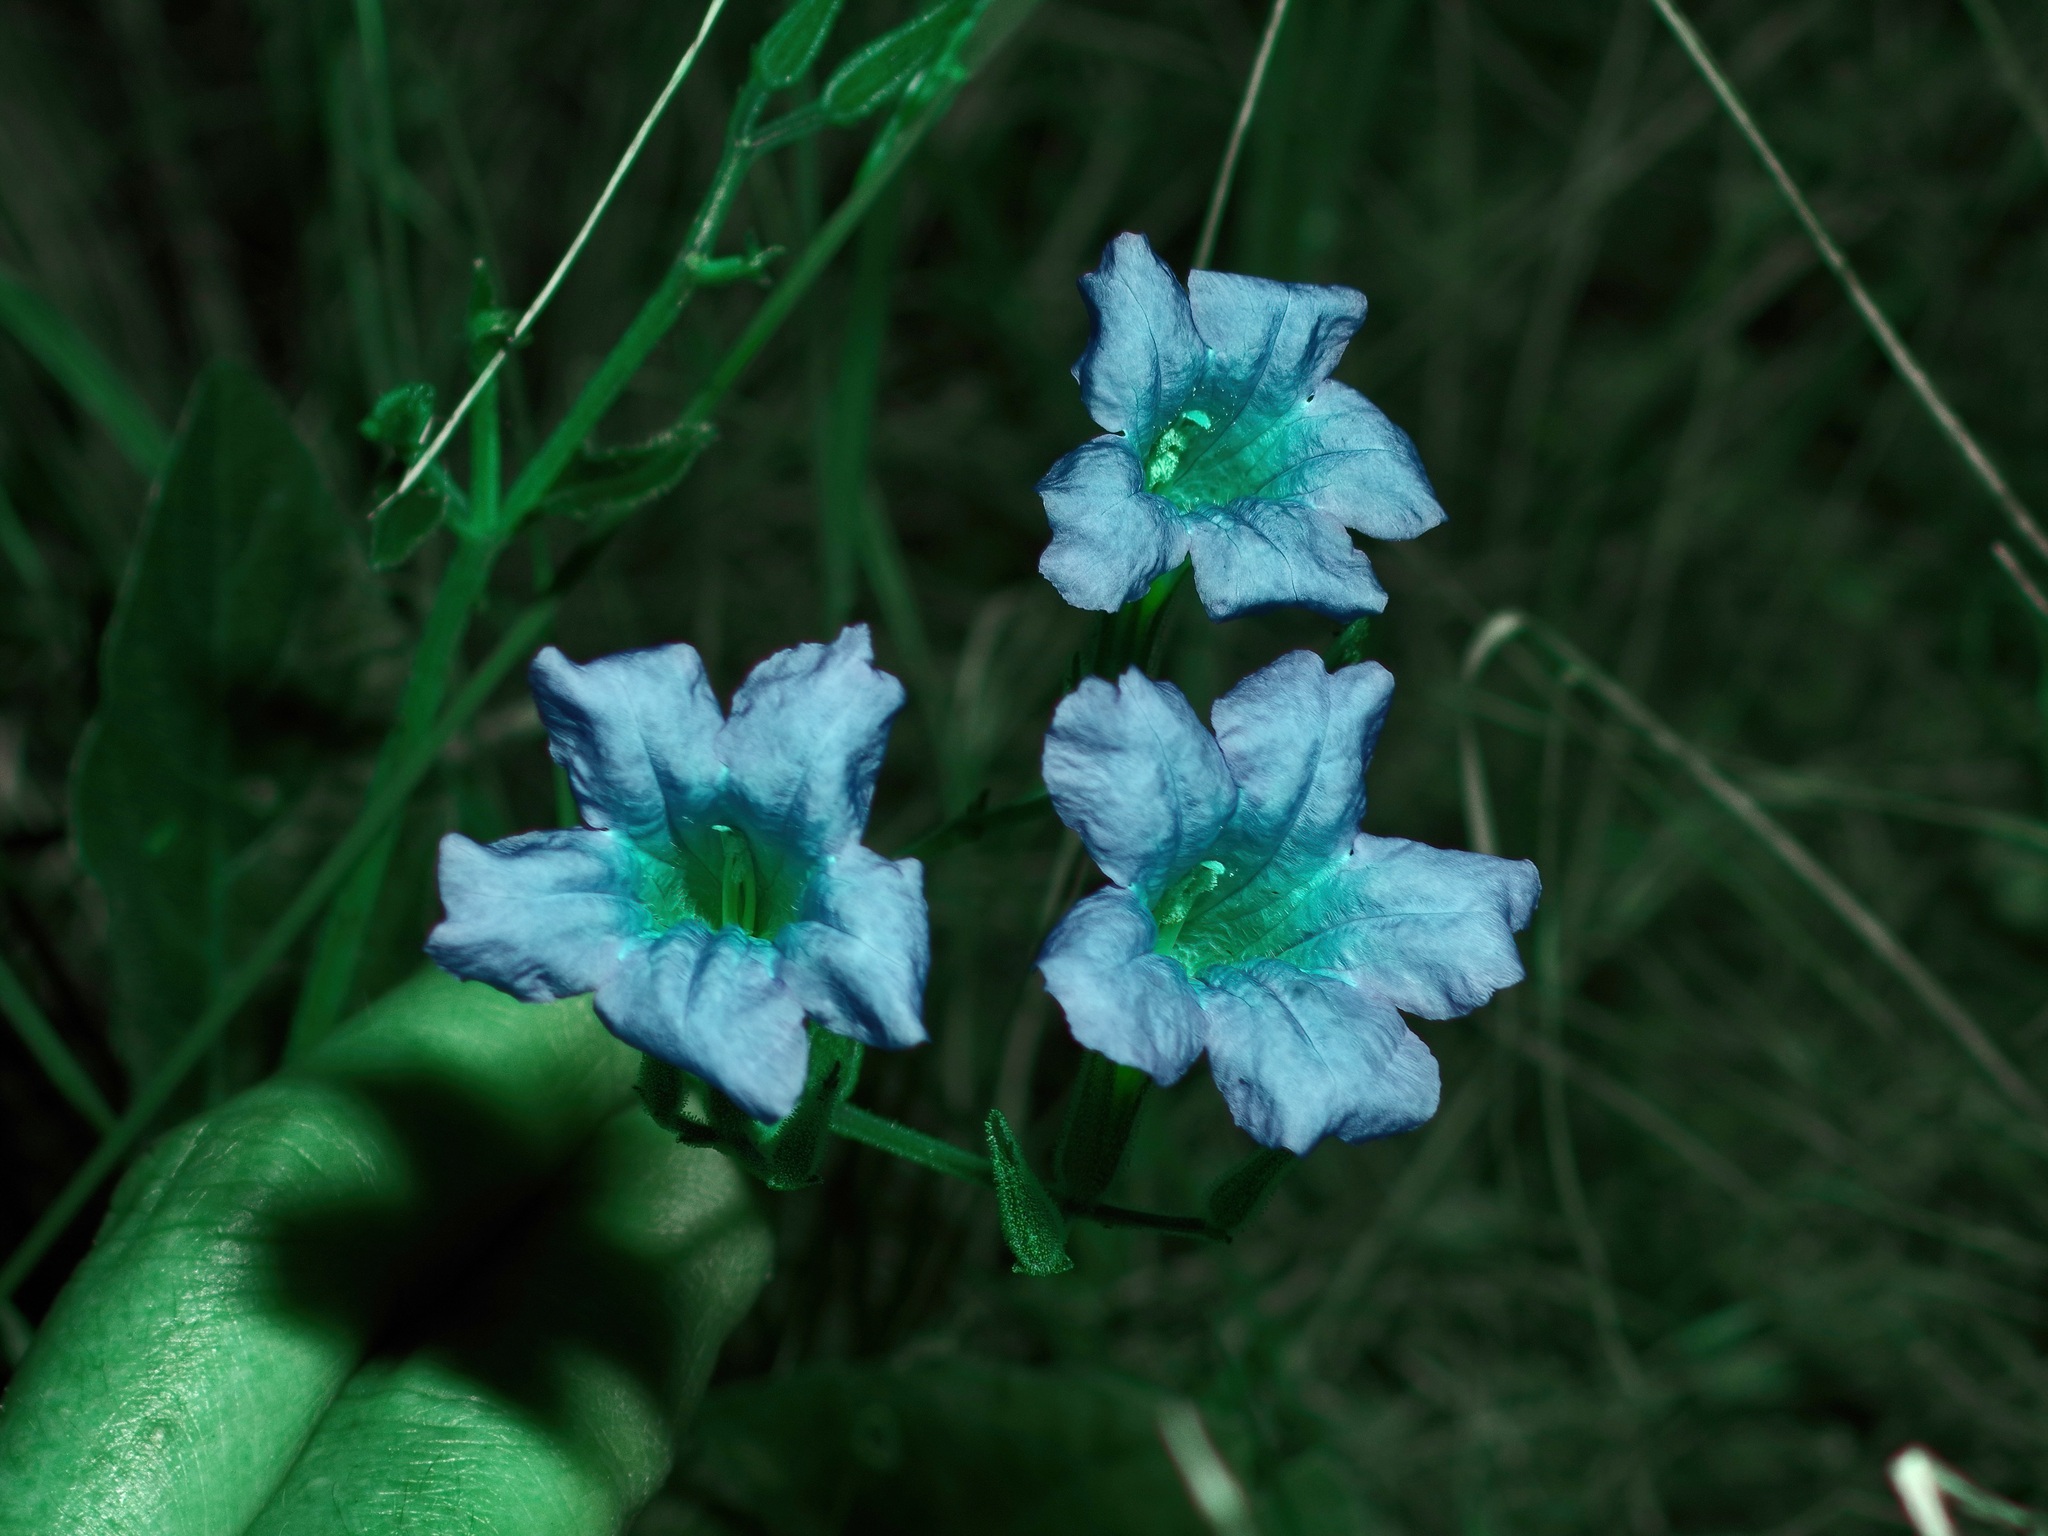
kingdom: Plantae
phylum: Tracheophyta
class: Magnoliopsida
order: Lamiales
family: Acanthaceae
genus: Ruellia
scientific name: Ruellia corzoi
